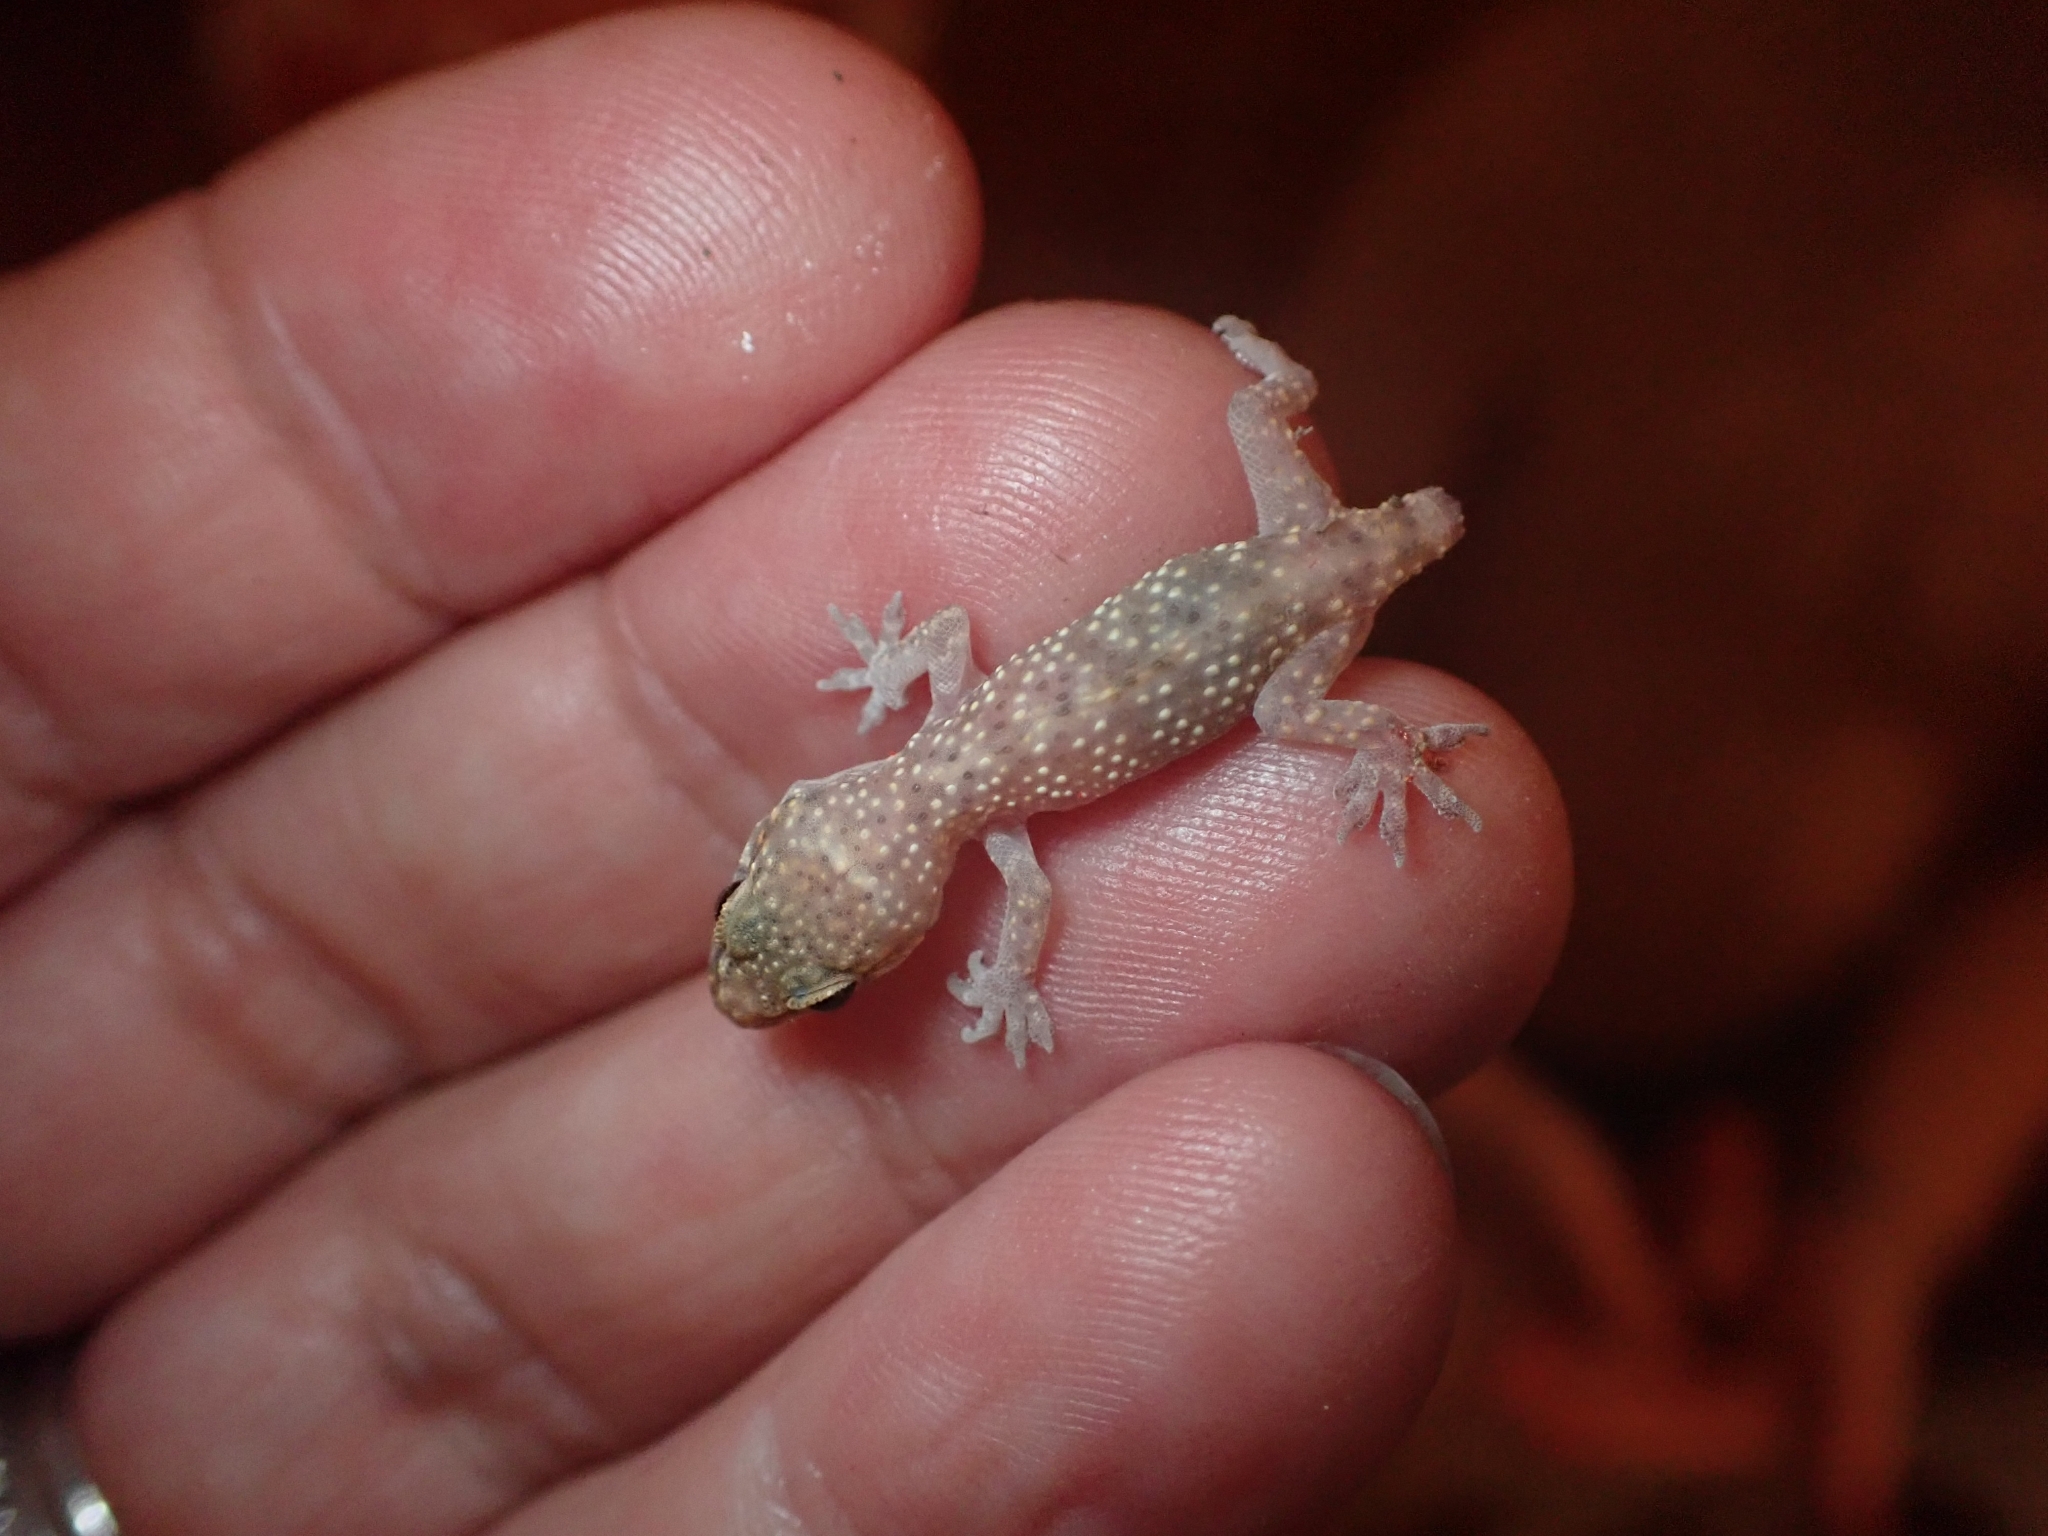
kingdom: Animalia
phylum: Chordata
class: Squamata
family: Gekkonidae
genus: Hemidactylus
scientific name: Hemidactylus turcicus
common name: Turkish gecko
